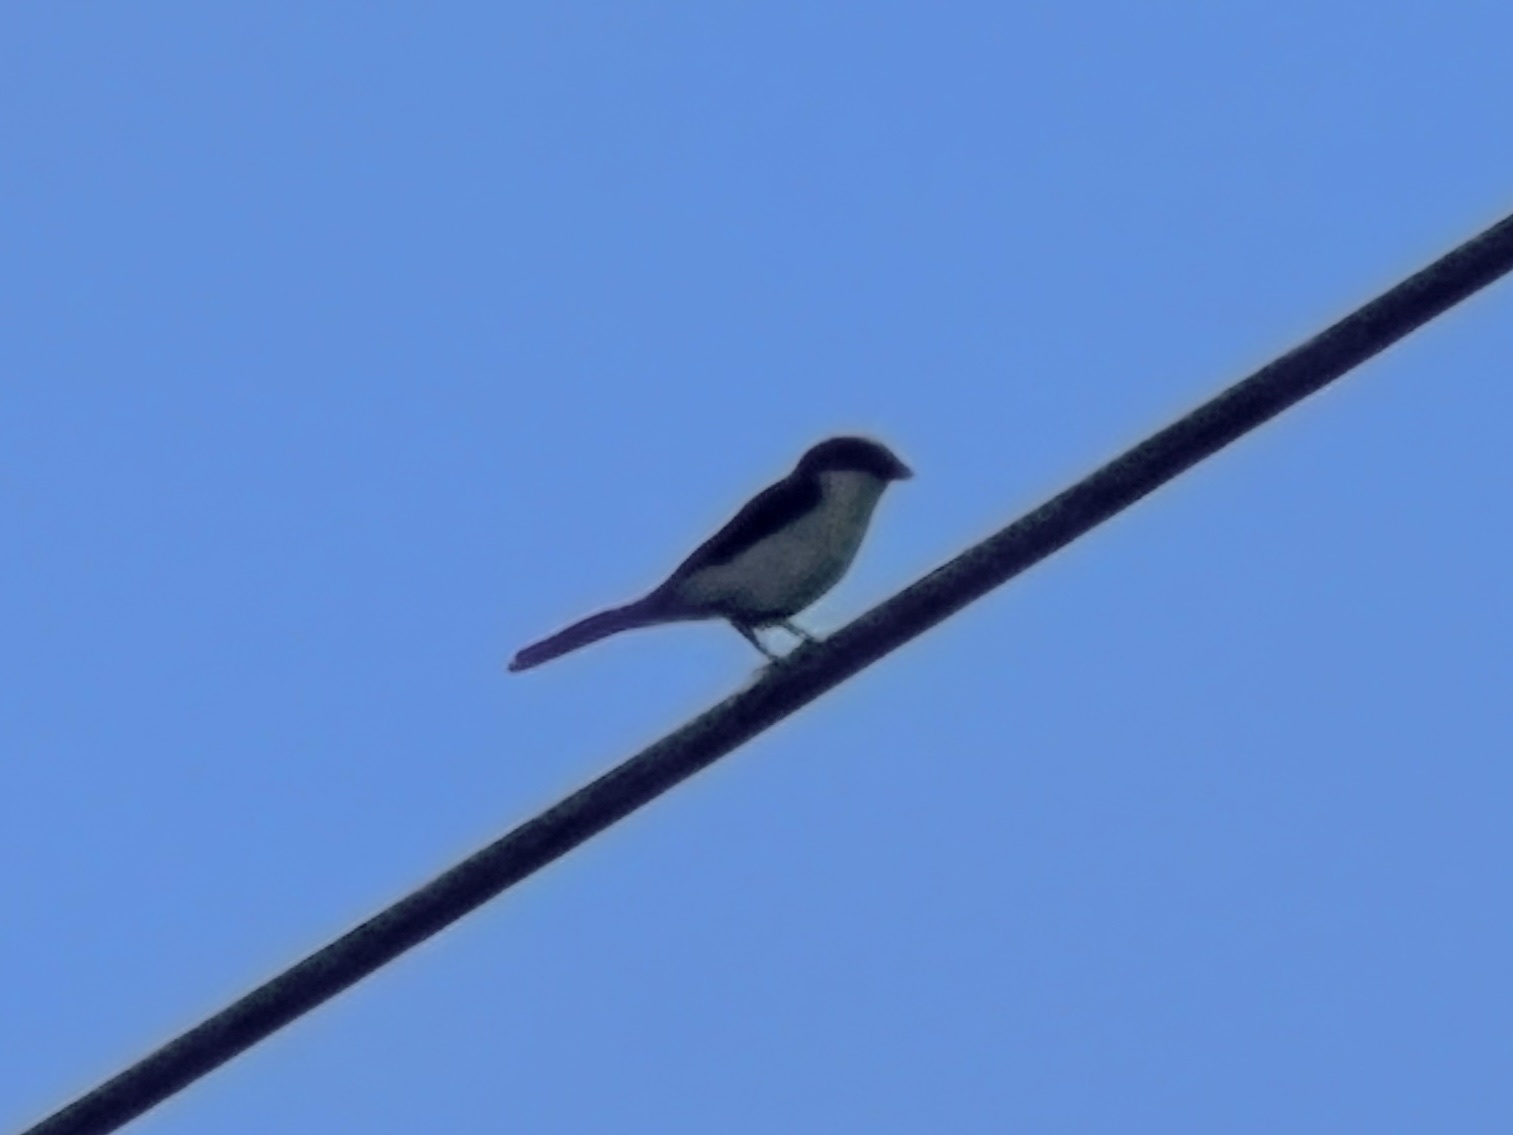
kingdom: Animalia
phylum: Chordata
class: Aves
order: Passeriformes
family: Laniidae
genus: Lanius
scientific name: Lanius ludovicianus
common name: Loggerhead shrike
